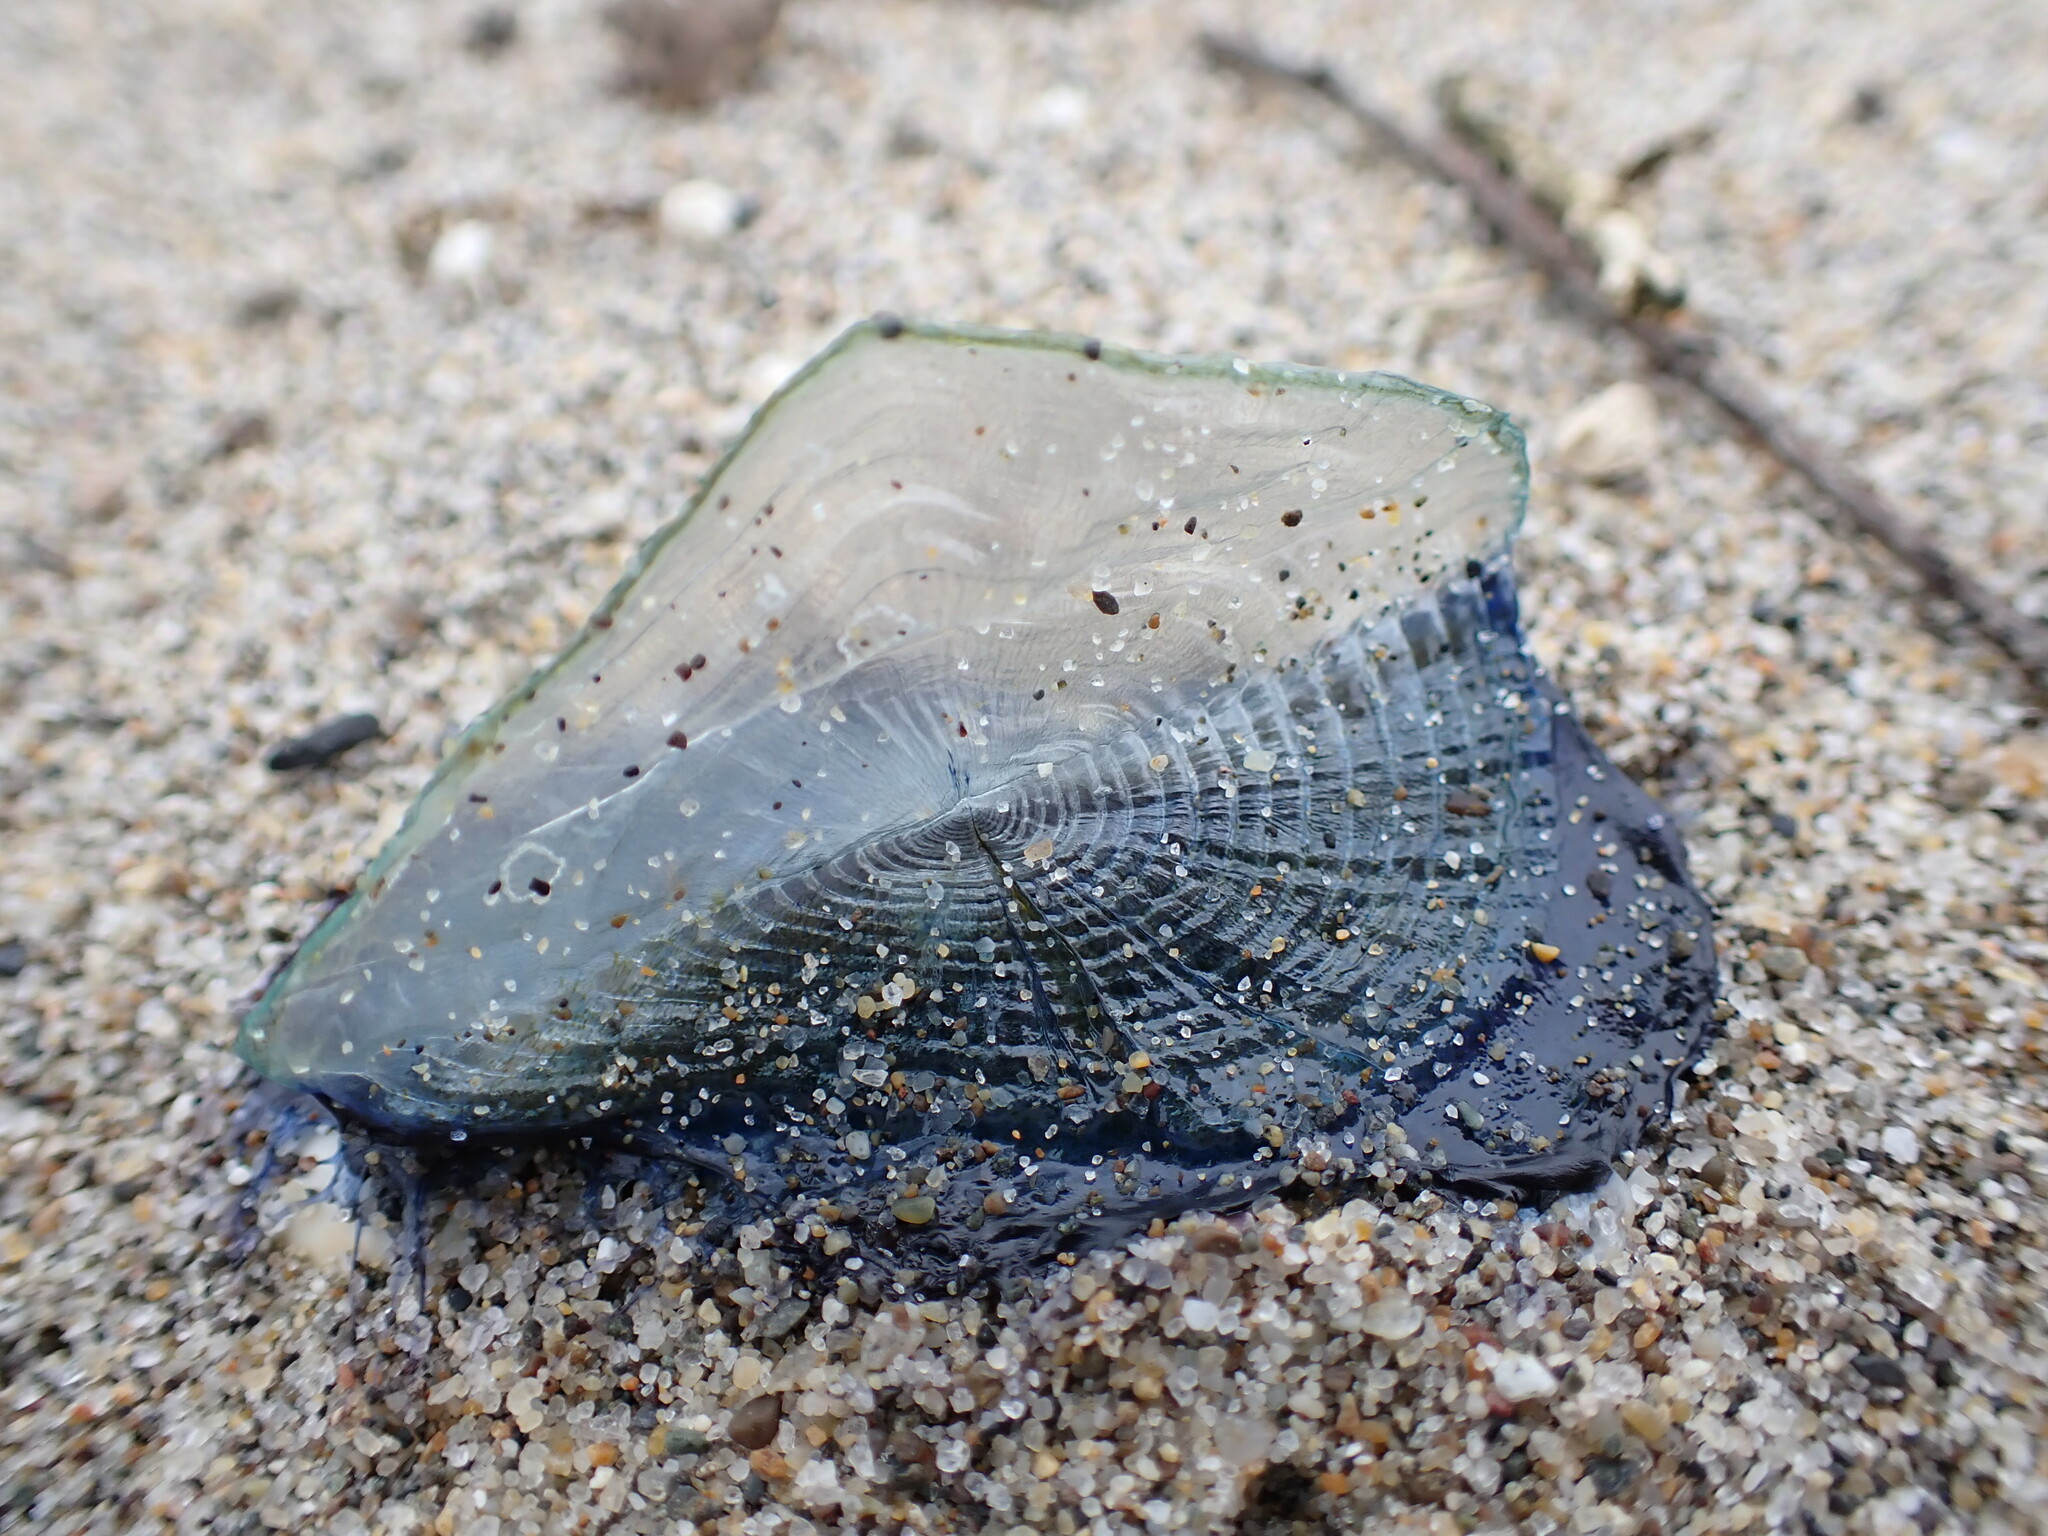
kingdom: Animalia
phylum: Cnidaria
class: Hydrozoa
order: Anthoathecata
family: Porpitidae
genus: Velella
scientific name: Velella velella
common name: By-the-wind-sailor
